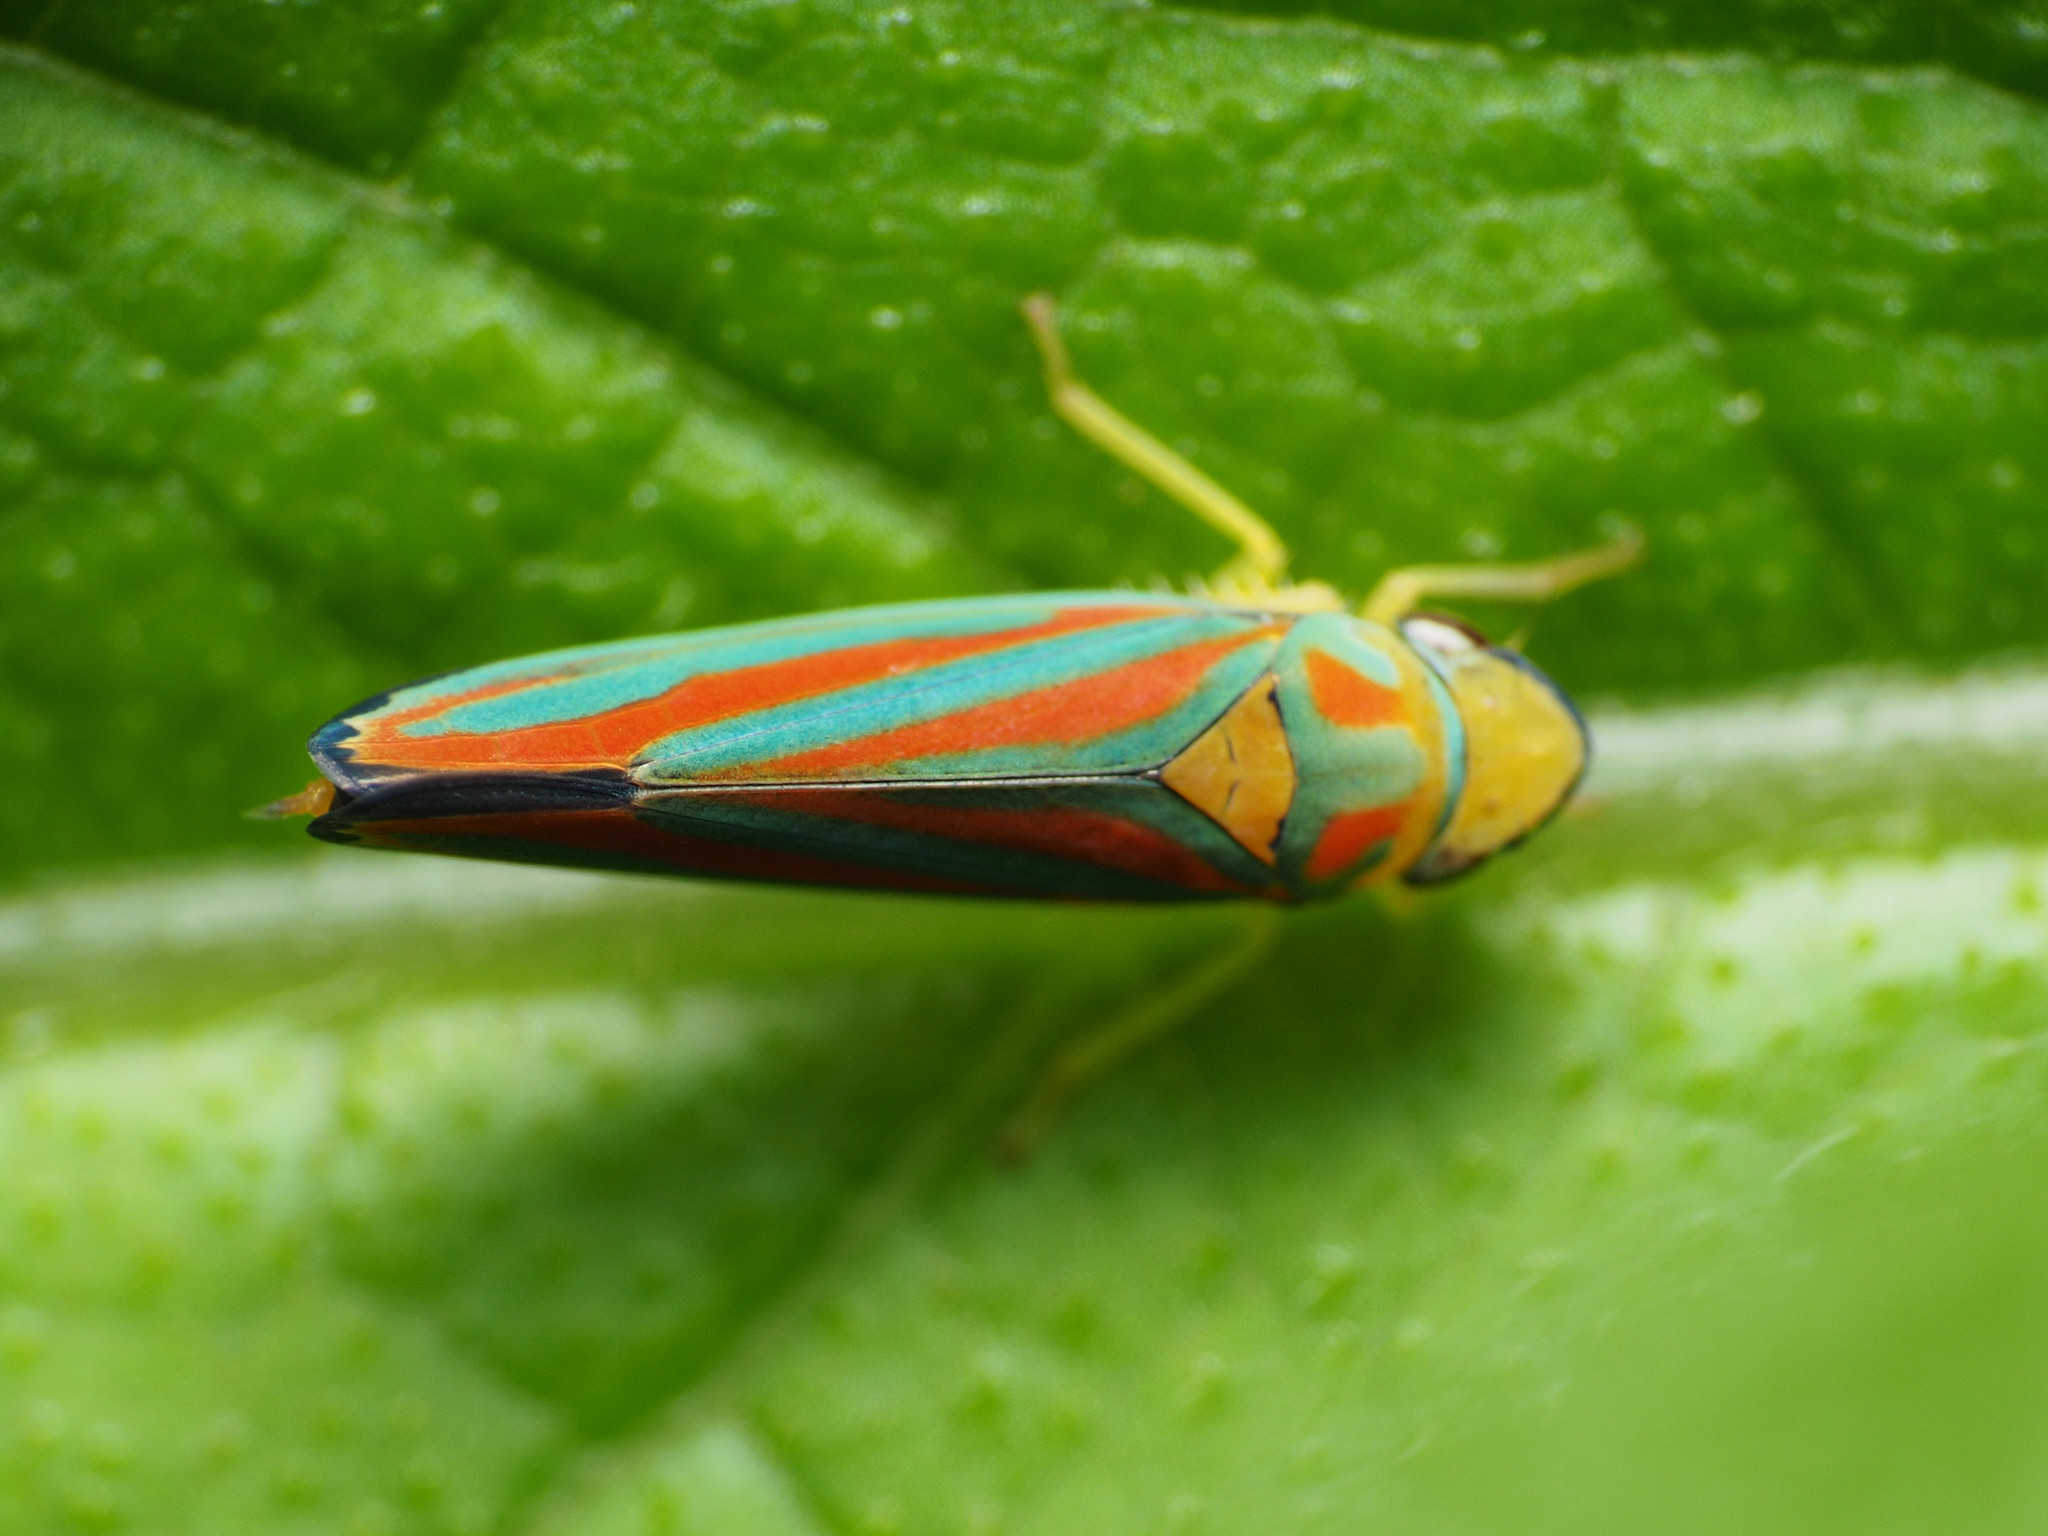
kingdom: Animalia
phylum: Arthropoda
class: Insecta
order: Hemiptera
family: Cicadellidae
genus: Graphocephala
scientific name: Graphocephala coccinea
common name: Candy-striped leafhopper
